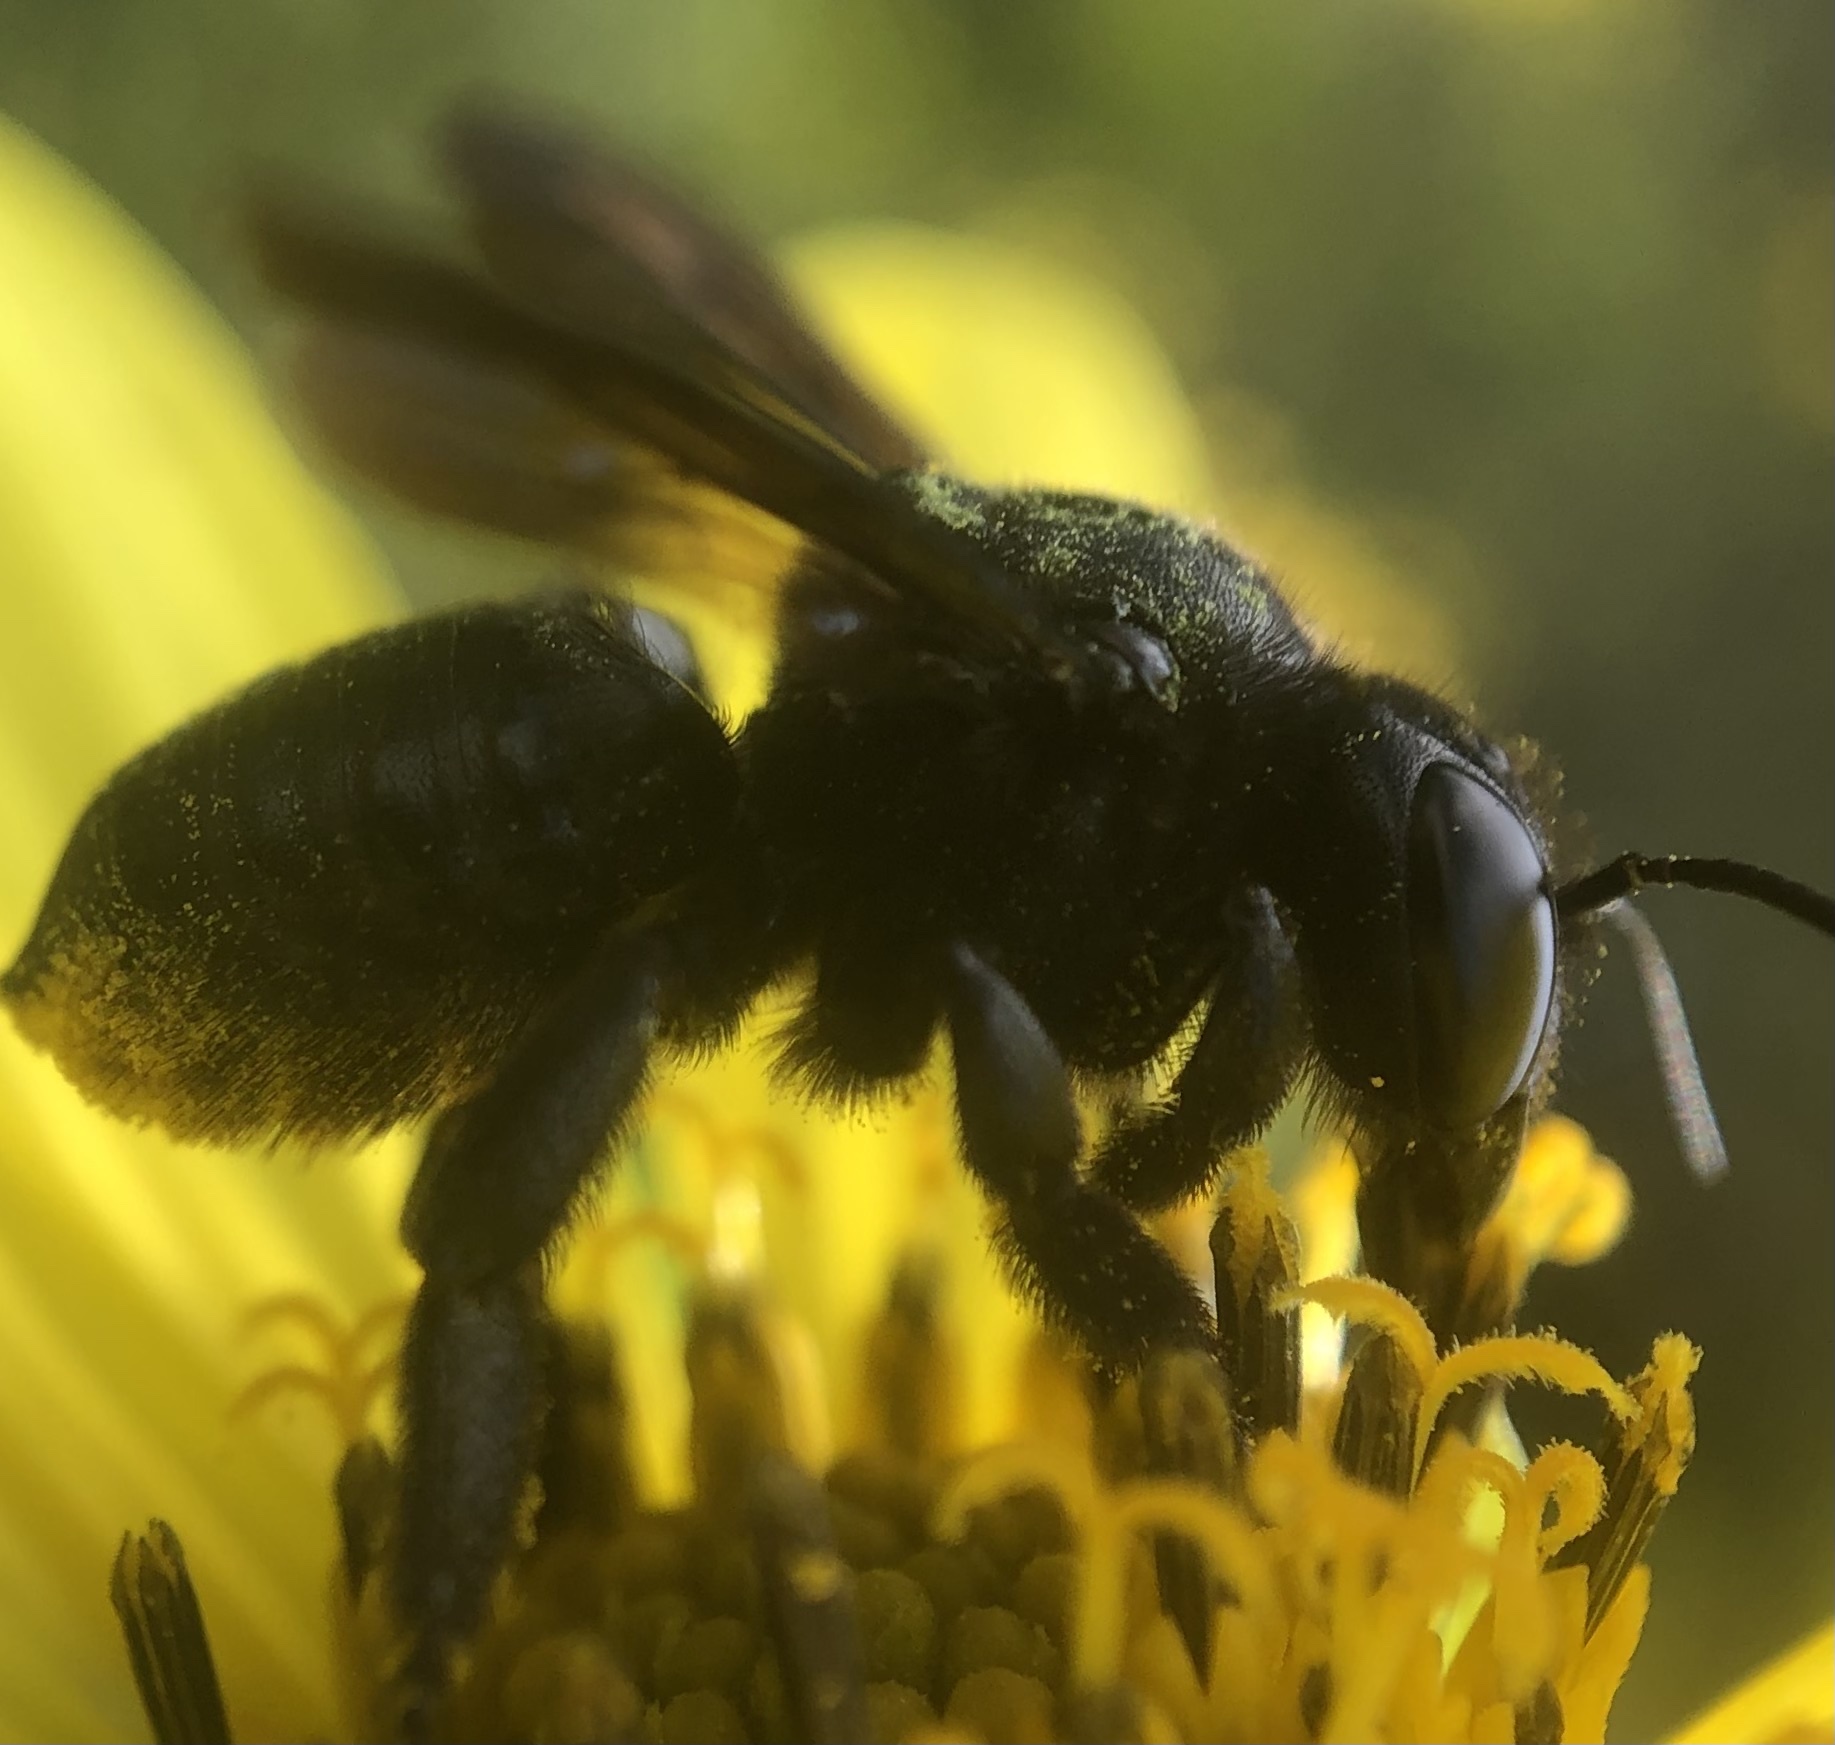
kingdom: Animalia
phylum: Arthropoda
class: Insecta
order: Hymenoptera
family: Megachilidae
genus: Megachile
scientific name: Megachile xylocopoides
